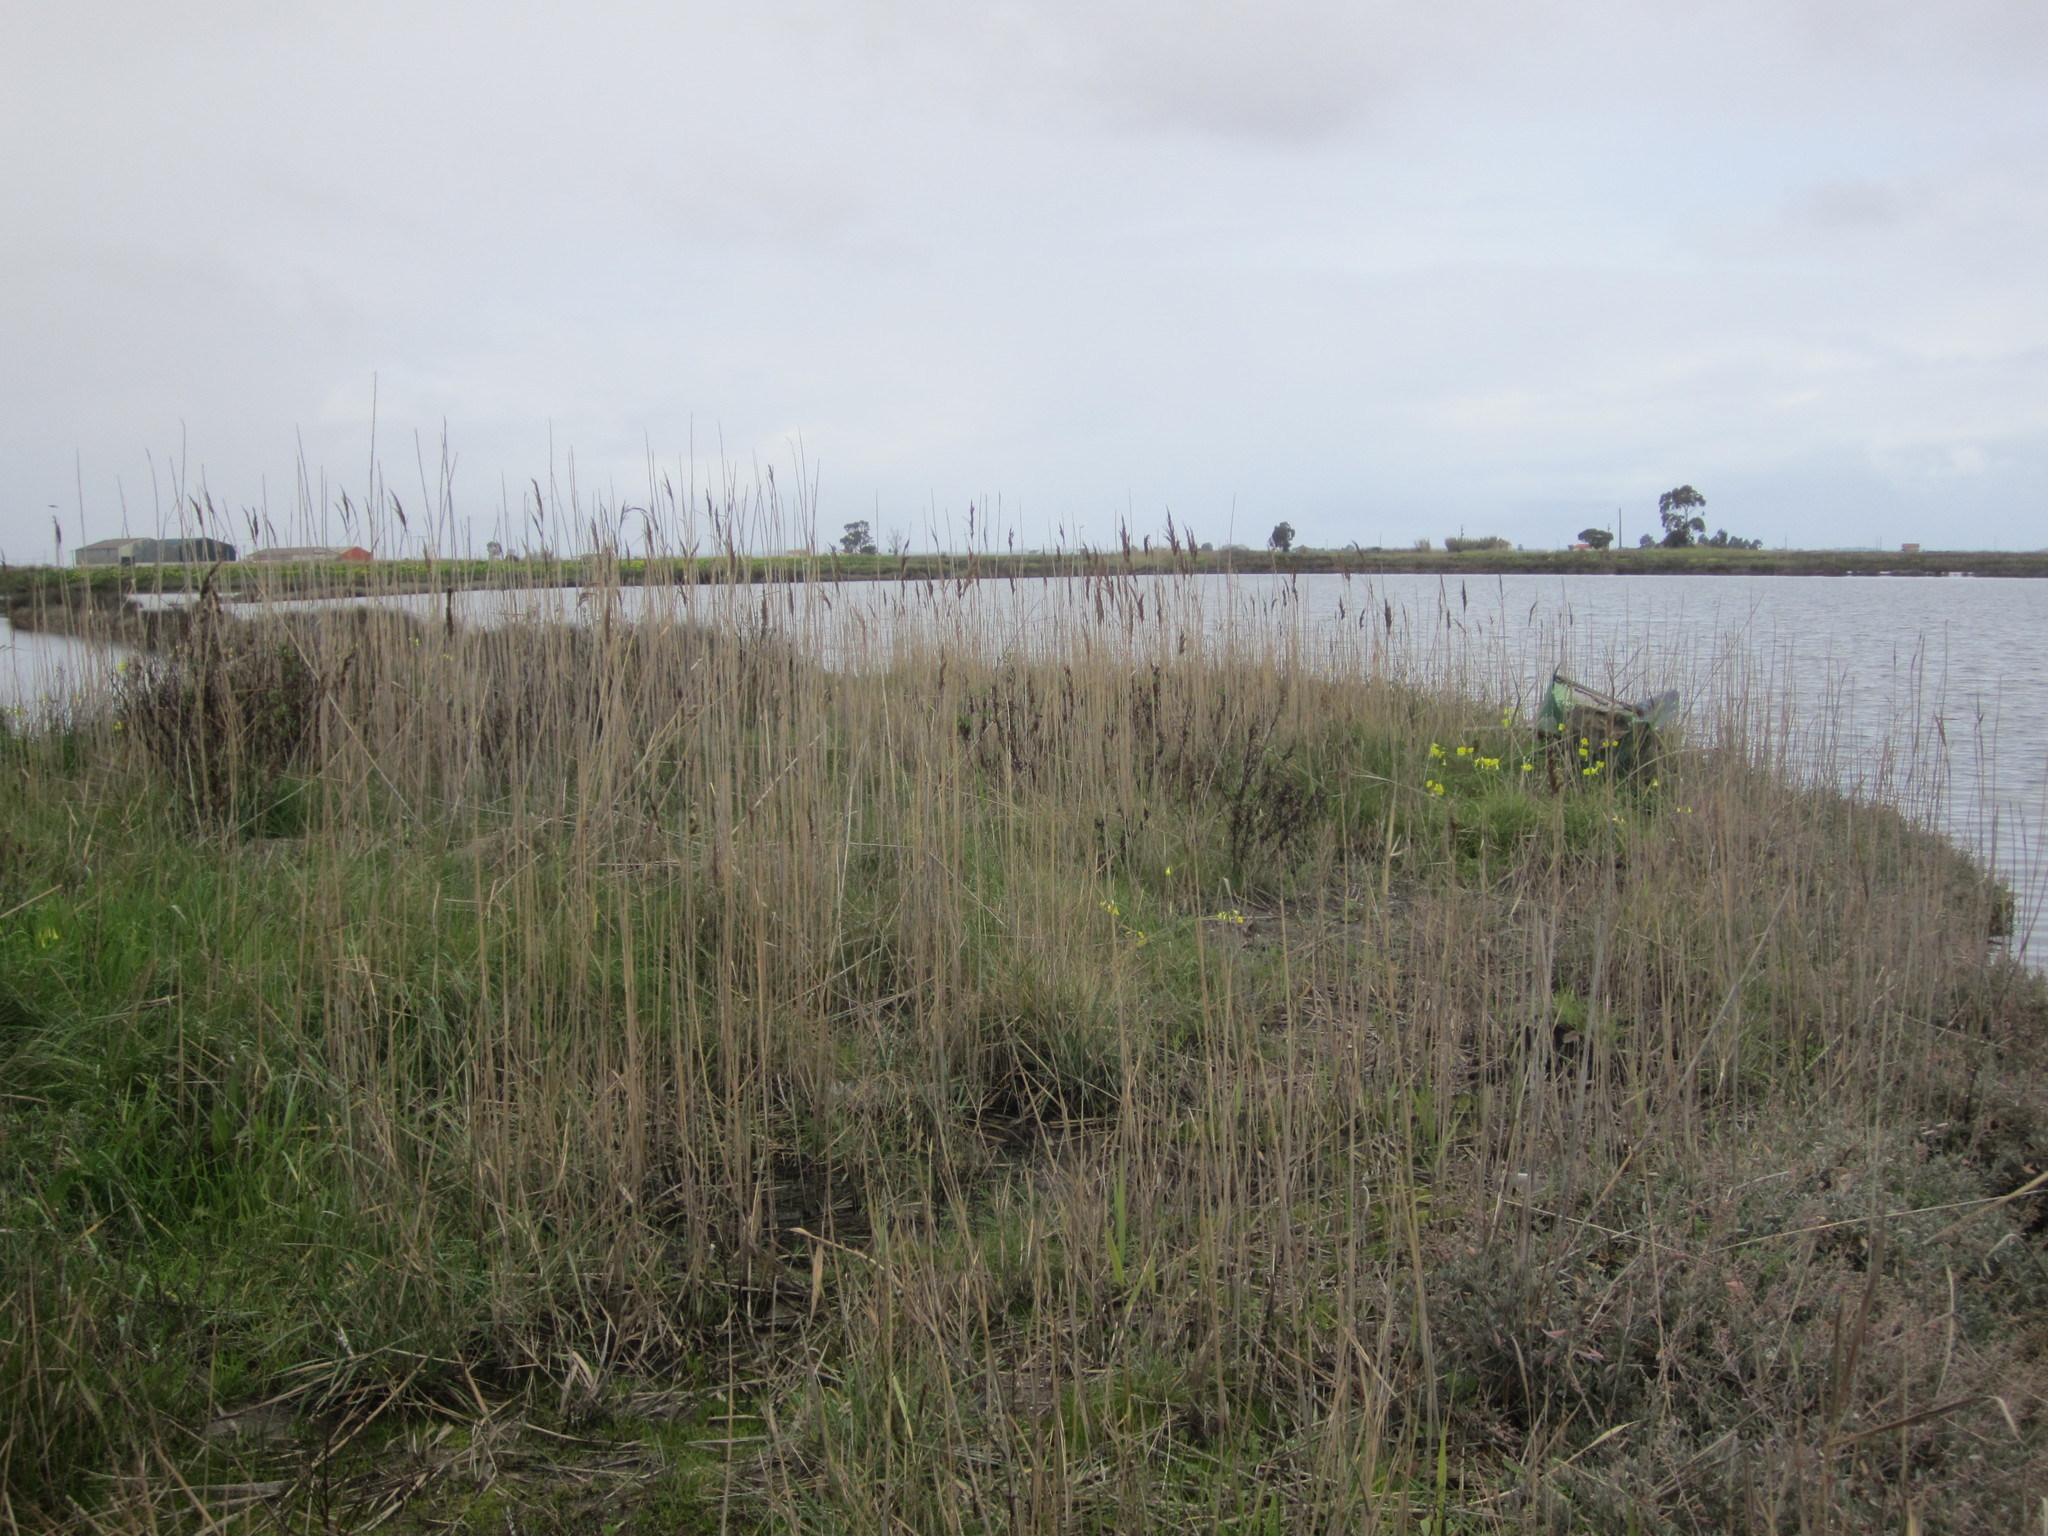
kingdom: Plantae
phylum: Tracheophyta
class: Liliopsida
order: Poales
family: Poaceae
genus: Phragmites
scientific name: Phragmites australis
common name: Common reed
